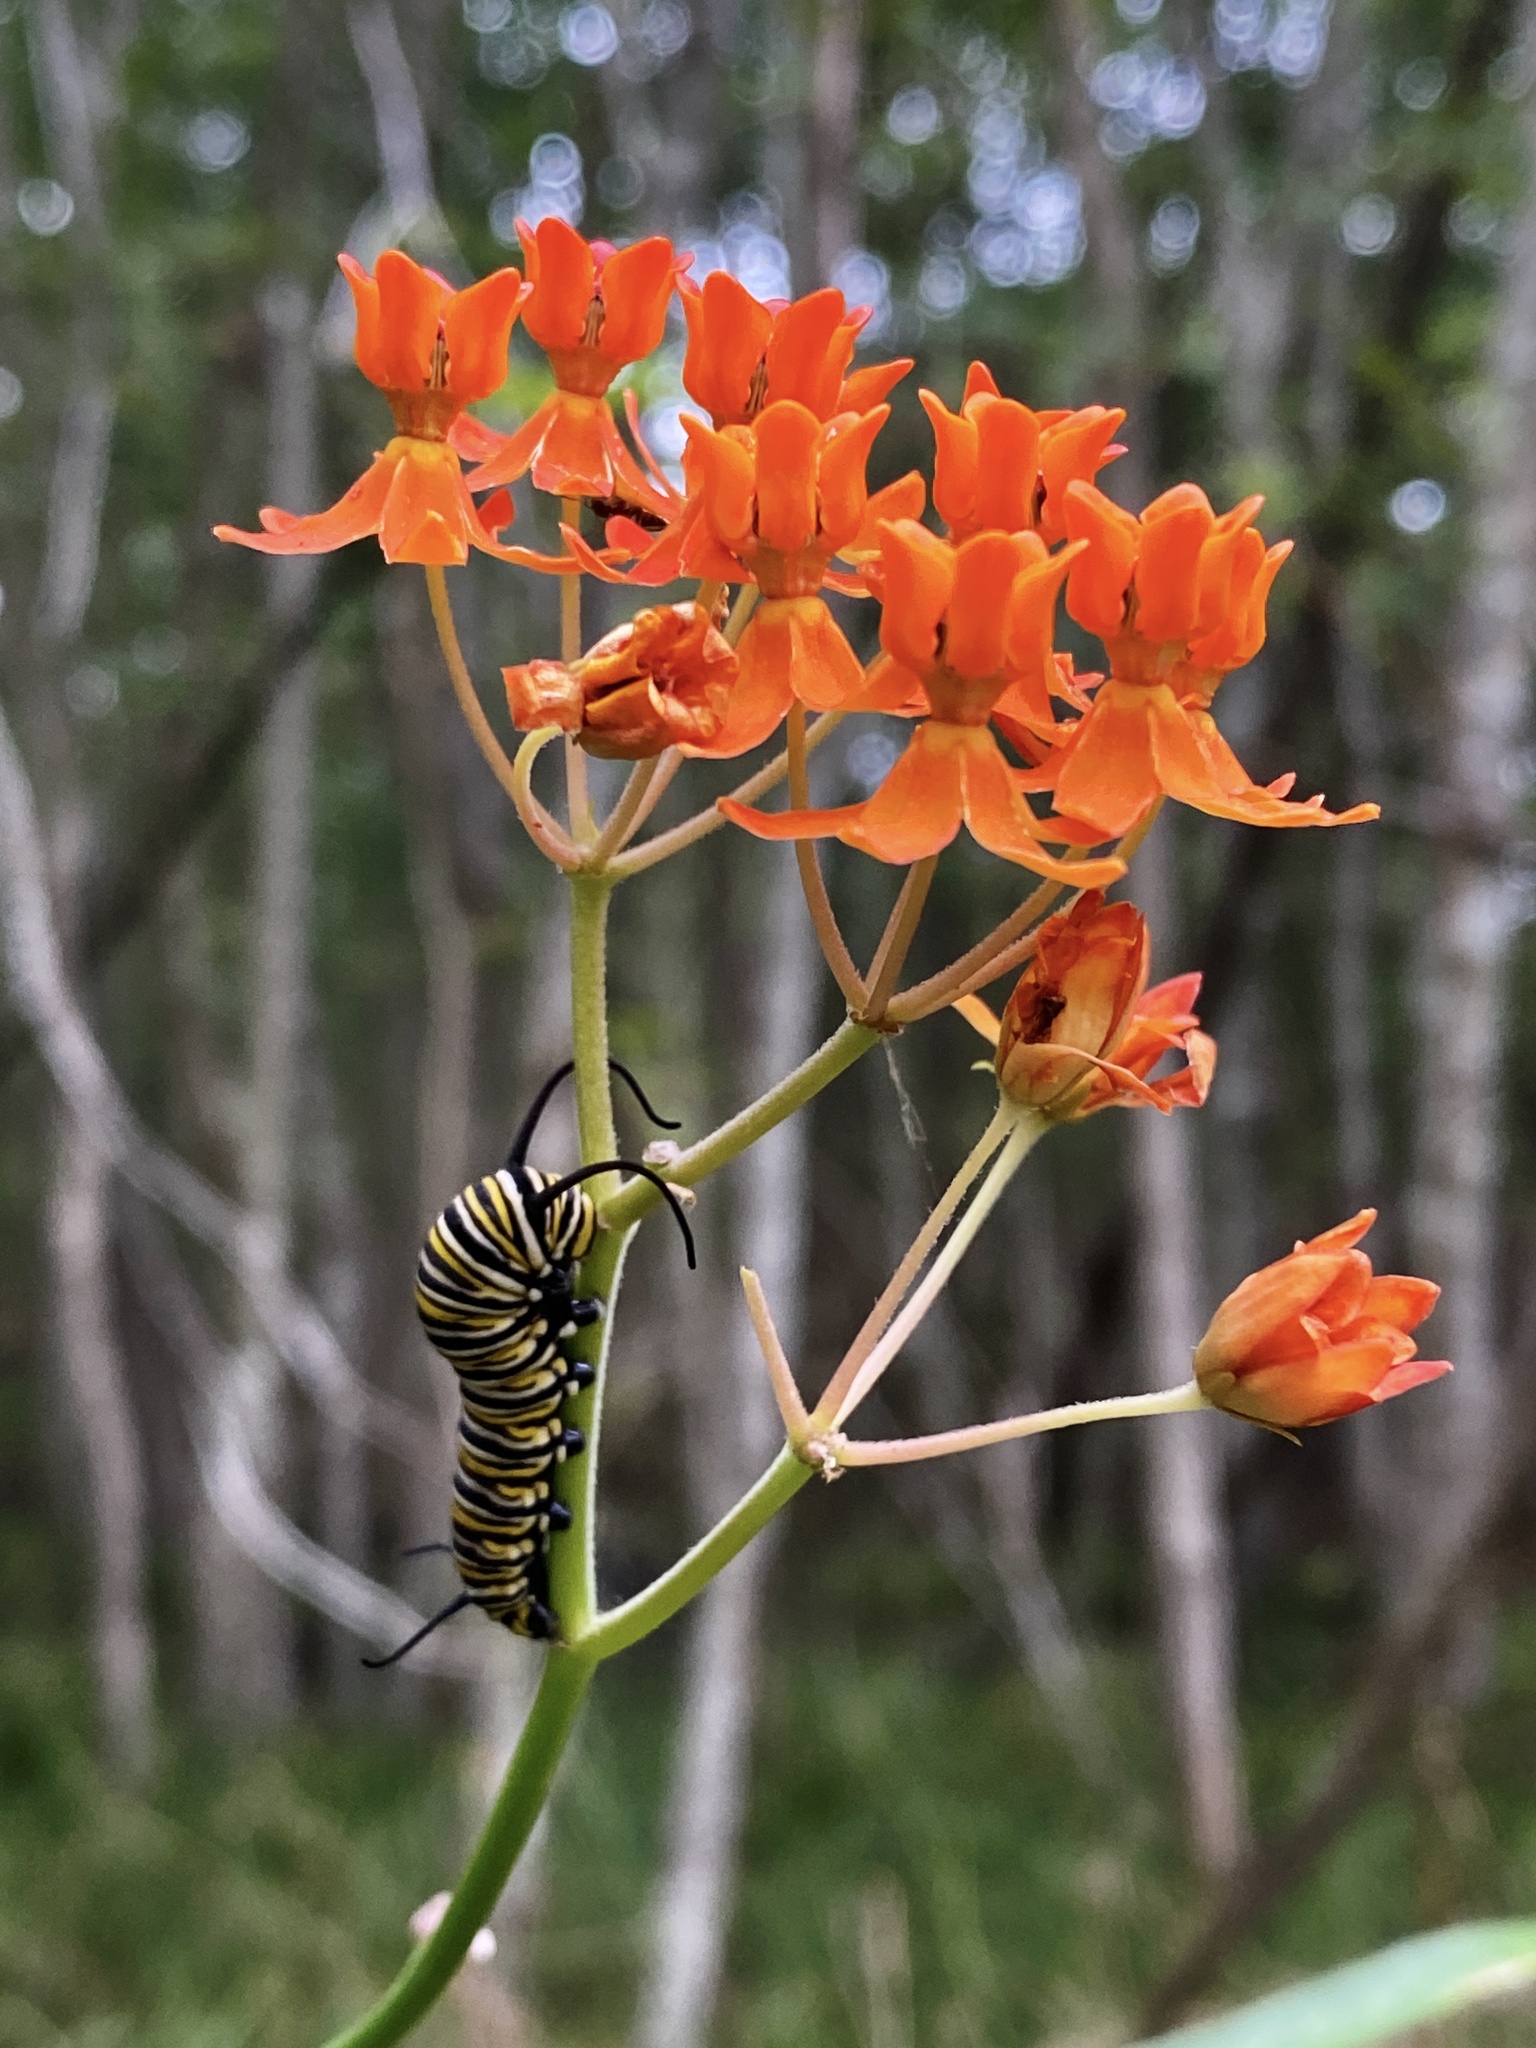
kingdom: Plantae
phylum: Tracheophyta
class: Magnoliopsida
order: Gentianales
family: Apocynaceae
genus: Asclepias
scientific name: Asclepias lanceolata
